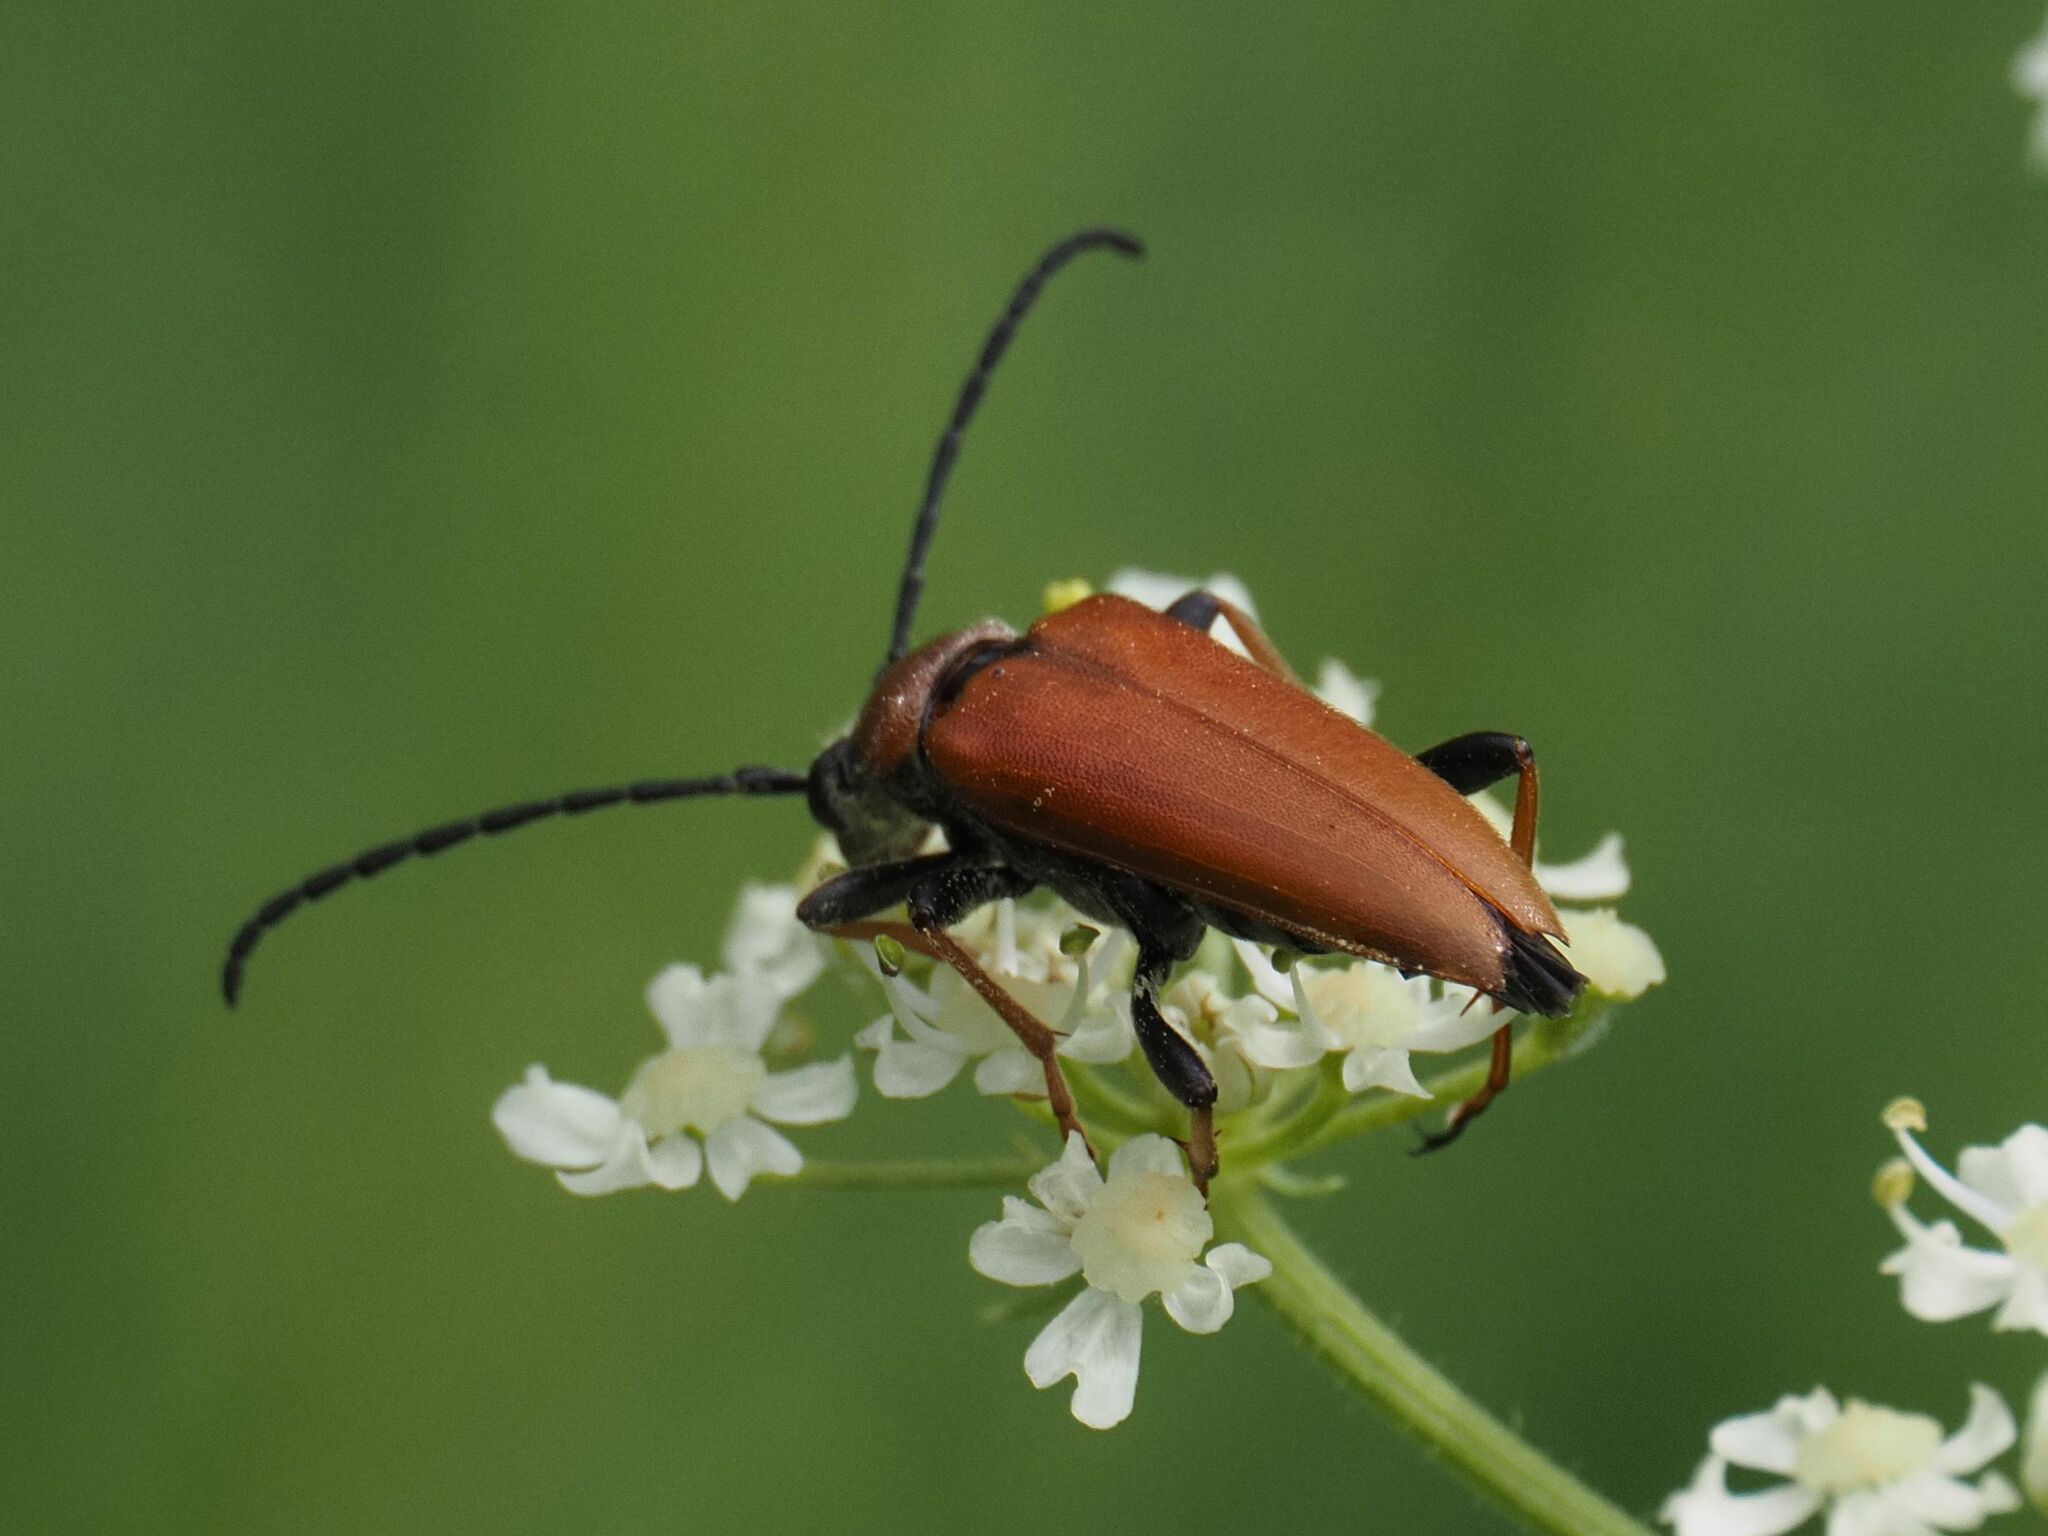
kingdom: Animalia
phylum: Arthropoda
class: Insecta
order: Coleoptera
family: Cerambycidae
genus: Stictoleptura
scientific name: Stictoleptura rubra
